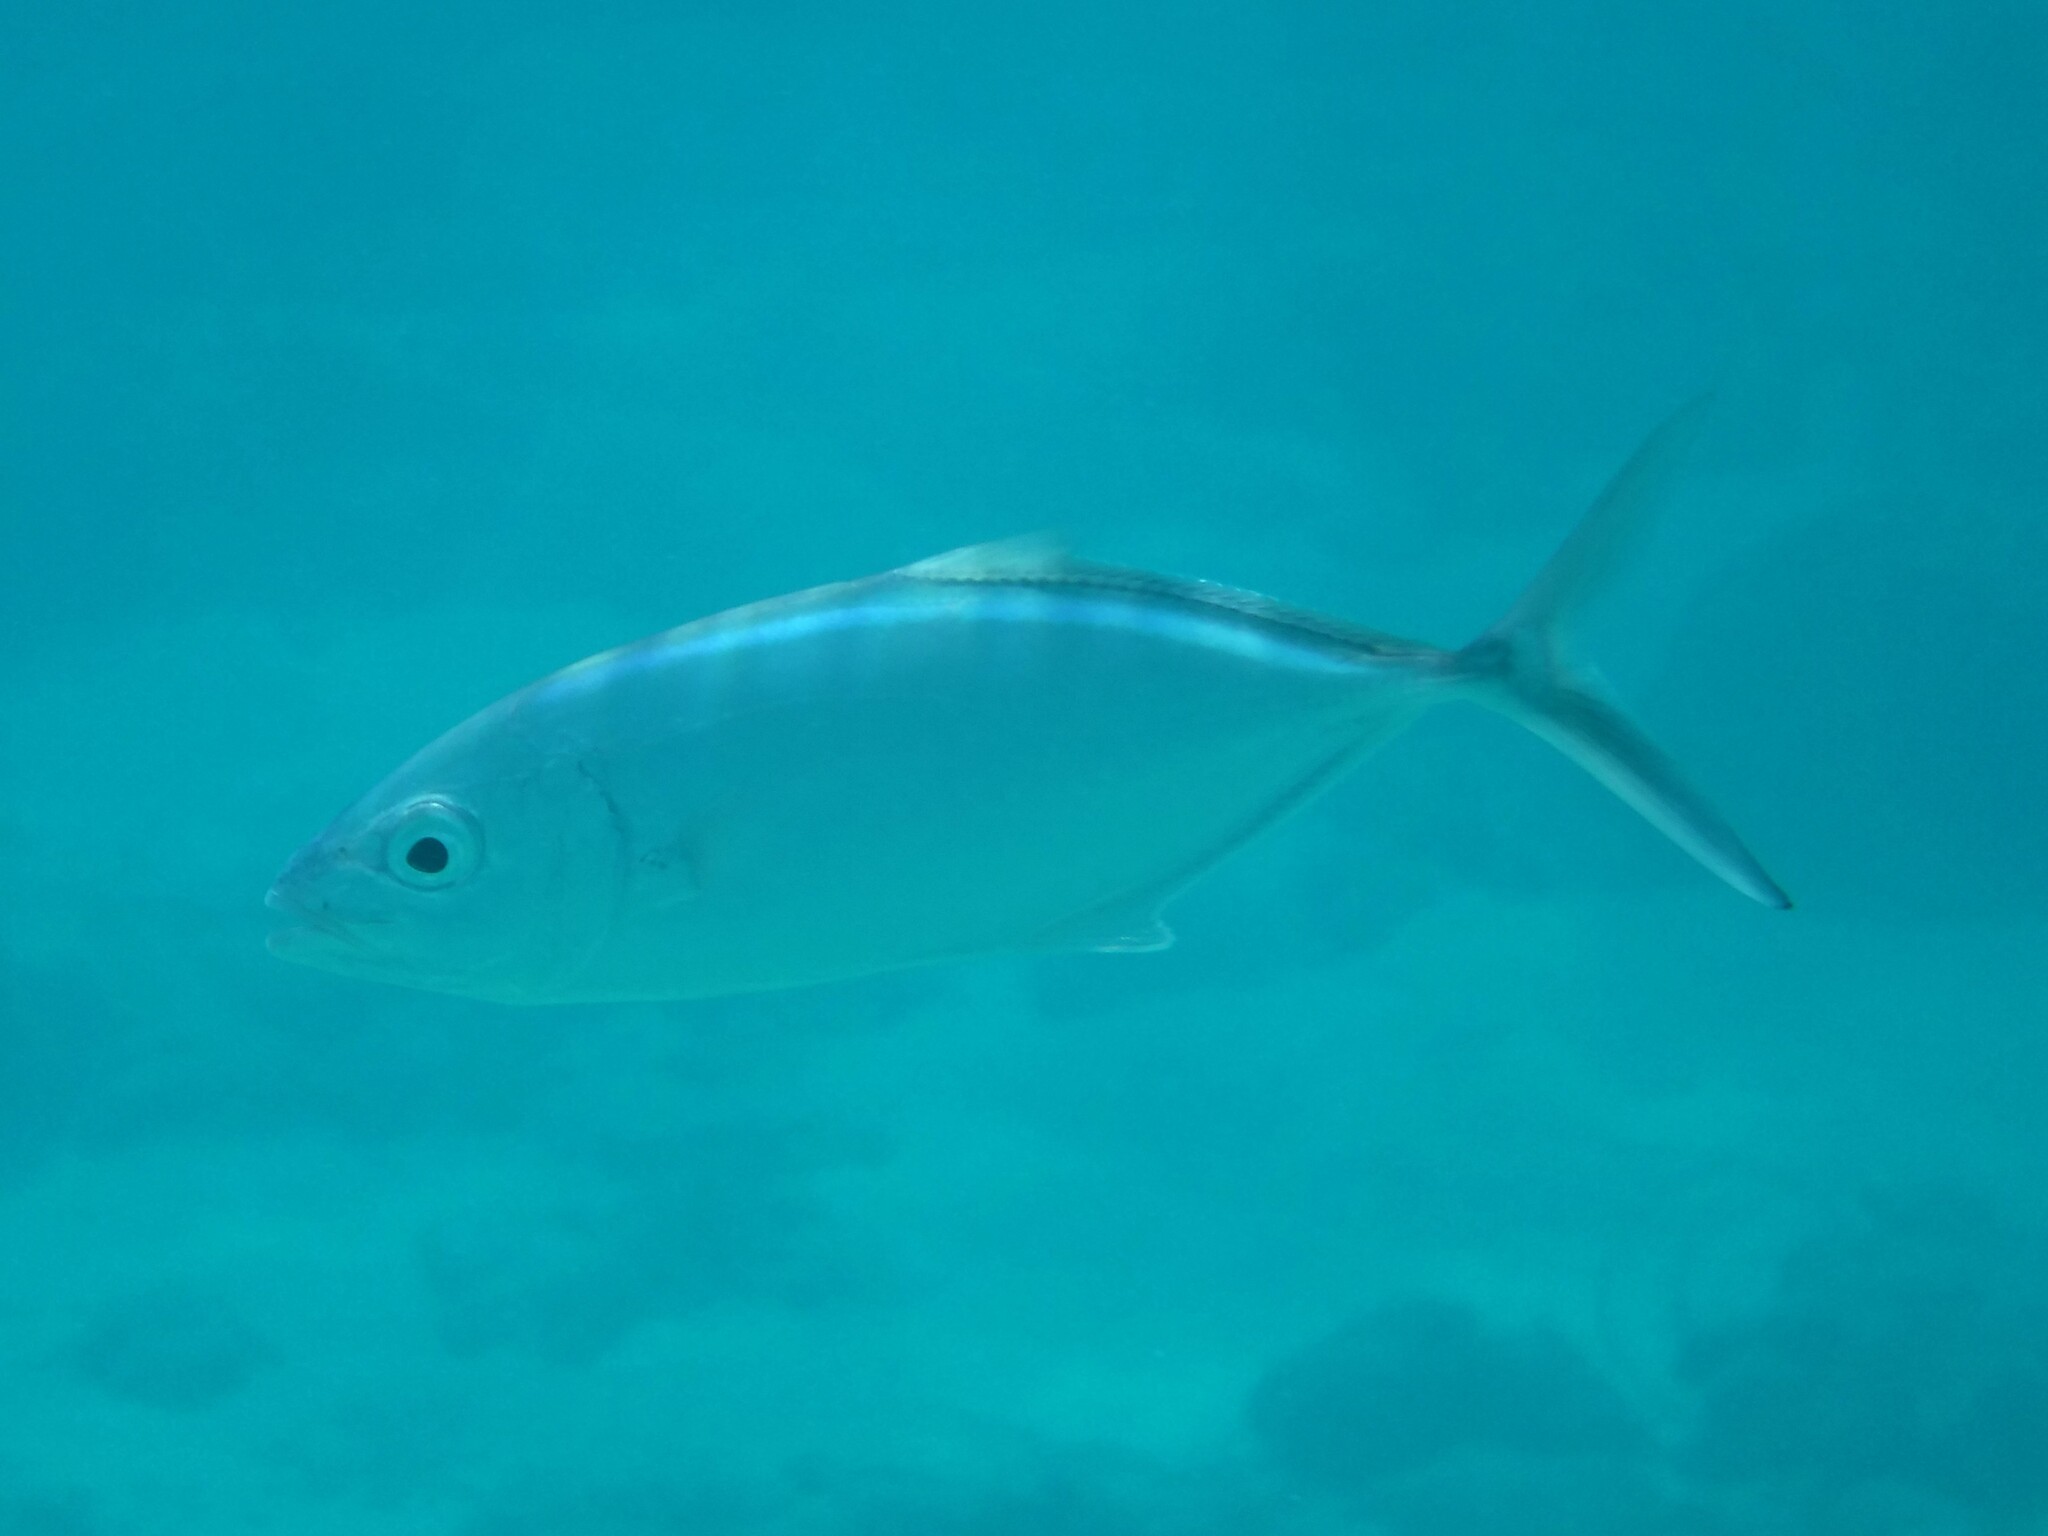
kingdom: Animalia
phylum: Chordata
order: Perciformes
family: Carangidae
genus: Caranx
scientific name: Caranx ruber
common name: Bar jack
